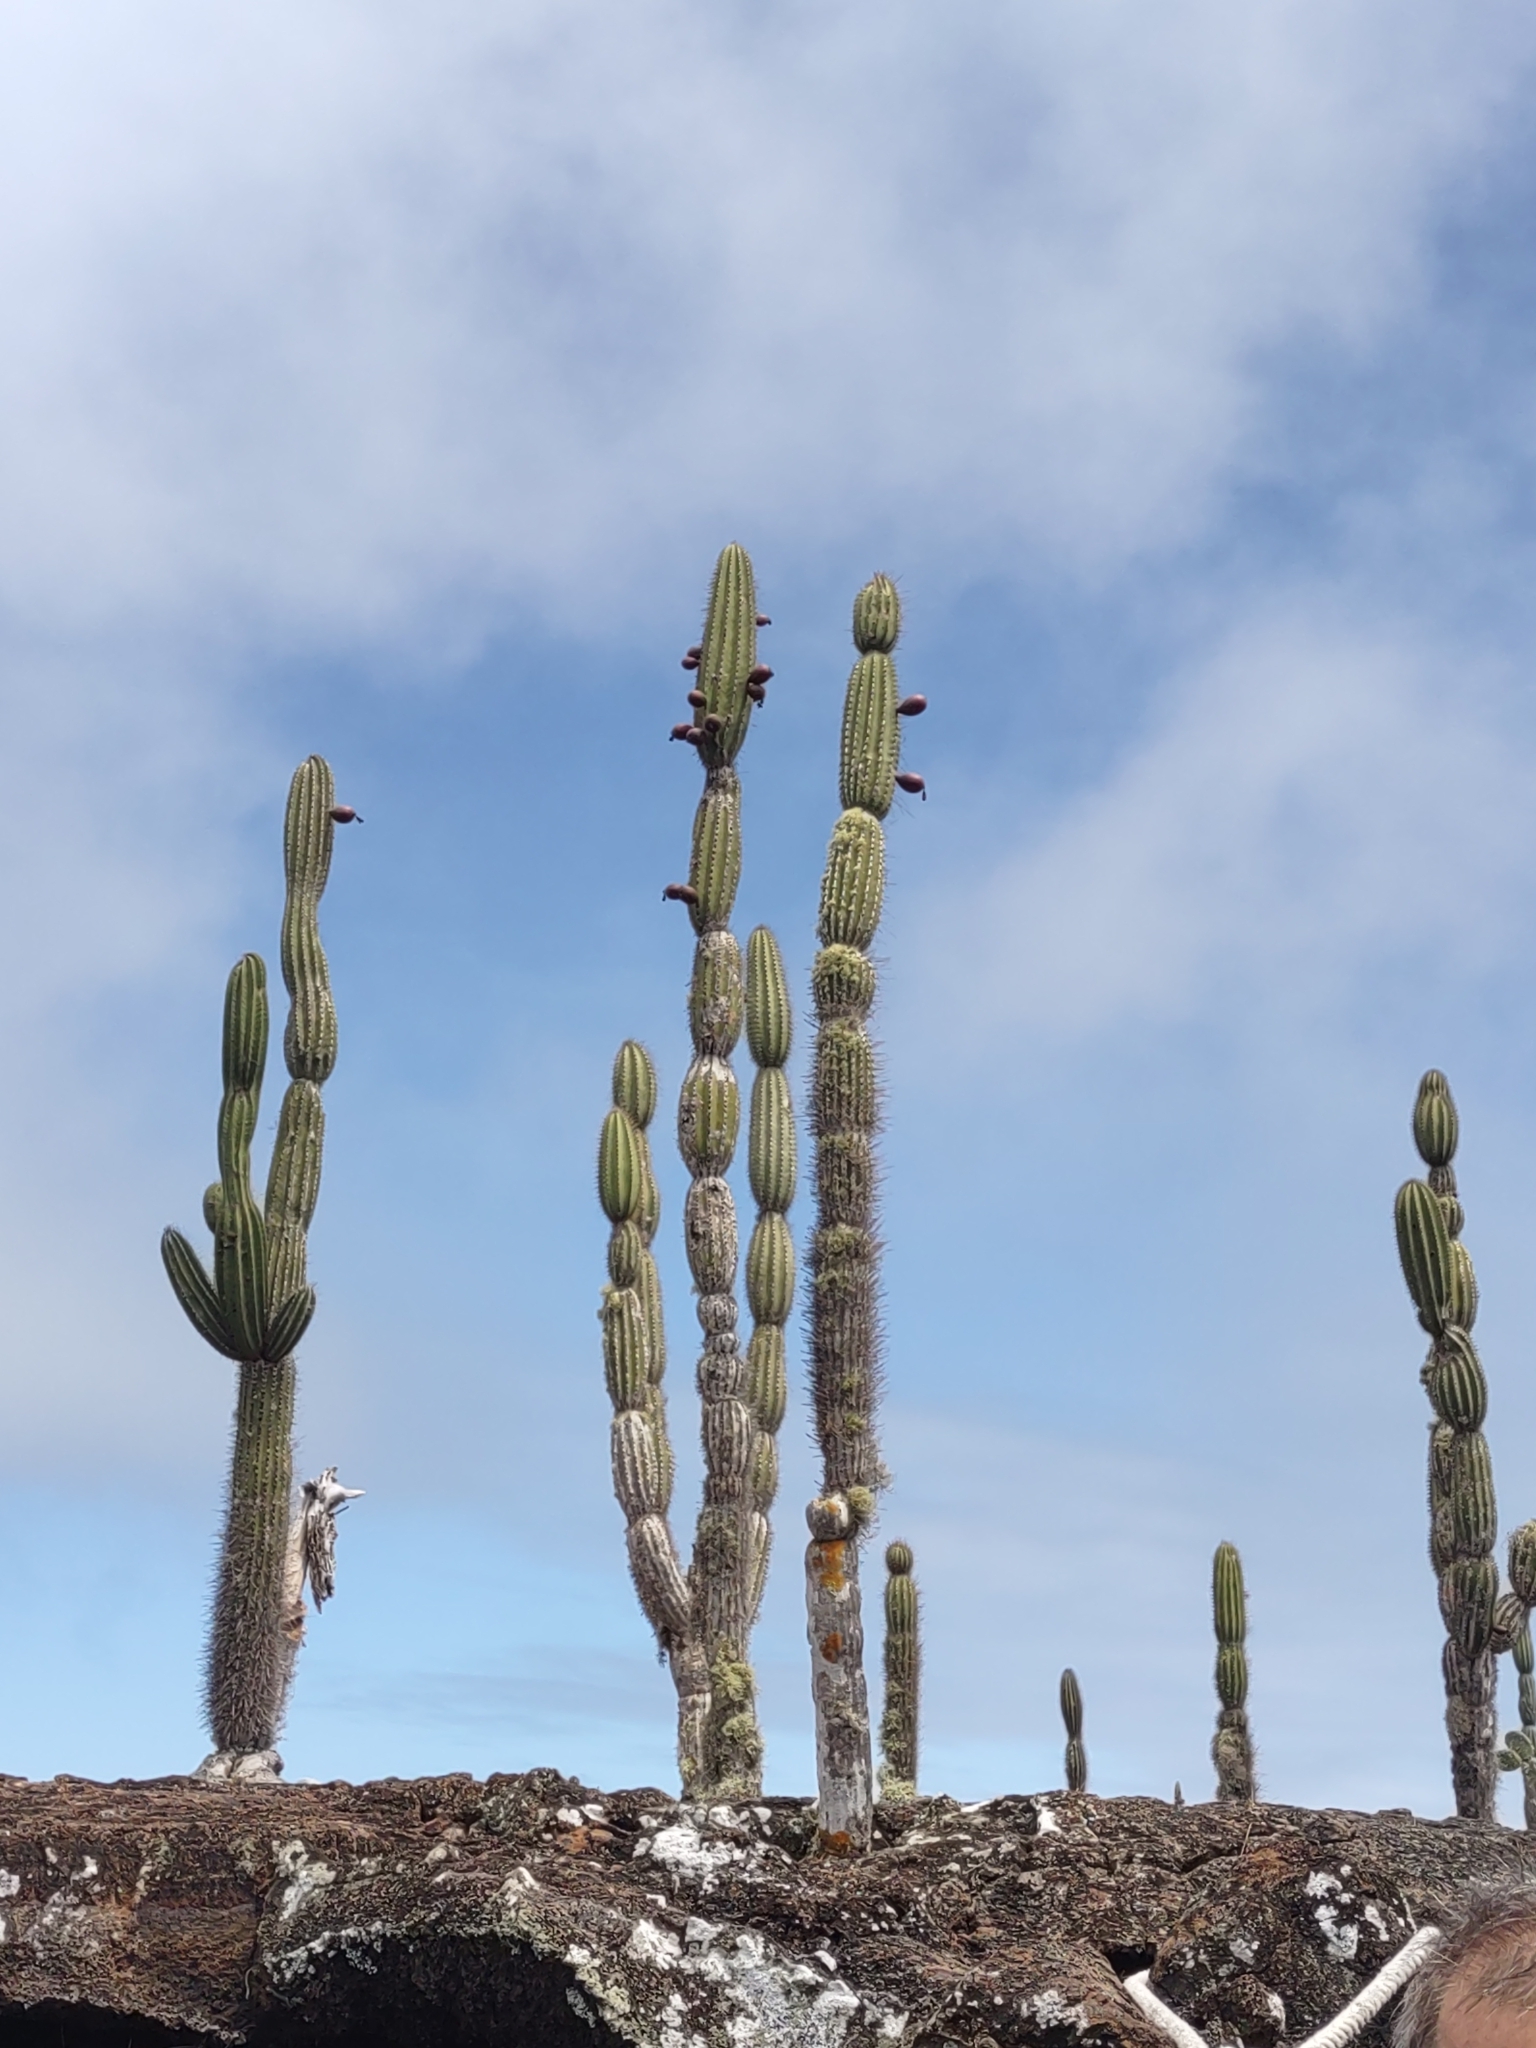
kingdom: Plantae
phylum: Tracheophyta
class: Magnoliopsida
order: Caryophyllales
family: Cactaceae
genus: Jasminocereus
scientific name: Jasminocereus thouarsii
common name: Candelabra cactus
